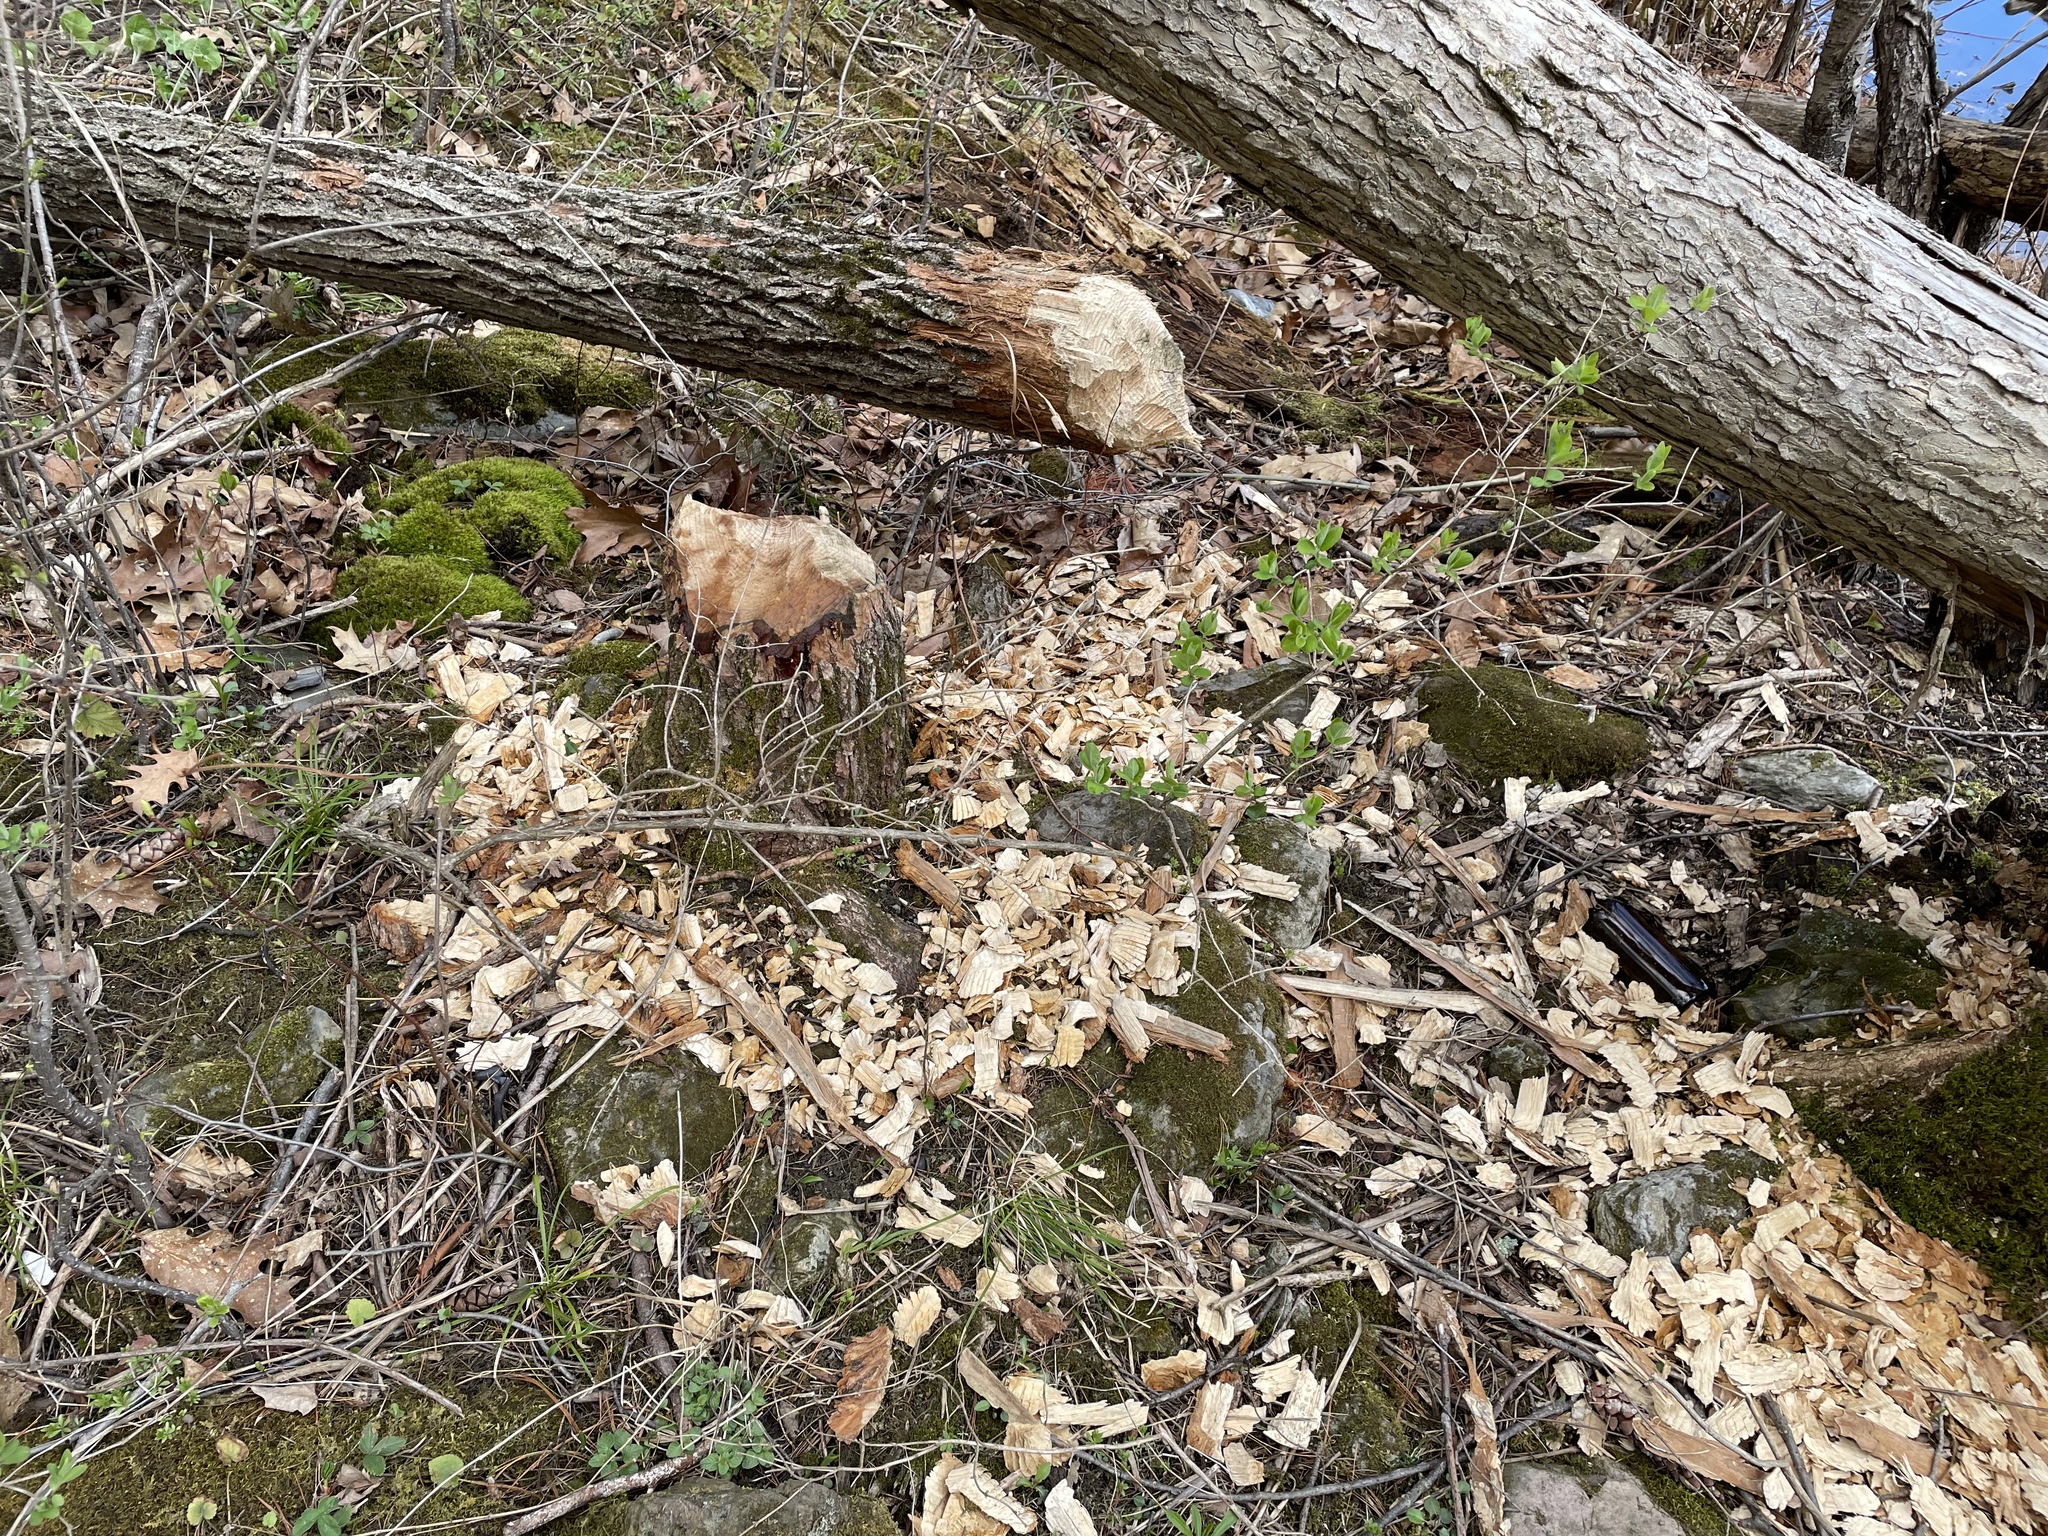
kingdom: Animalia
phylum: Chordata
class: Mammalia
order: Rodentia
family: Castoridae
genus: Castor
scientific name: Castor canadensis
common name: American beaver
